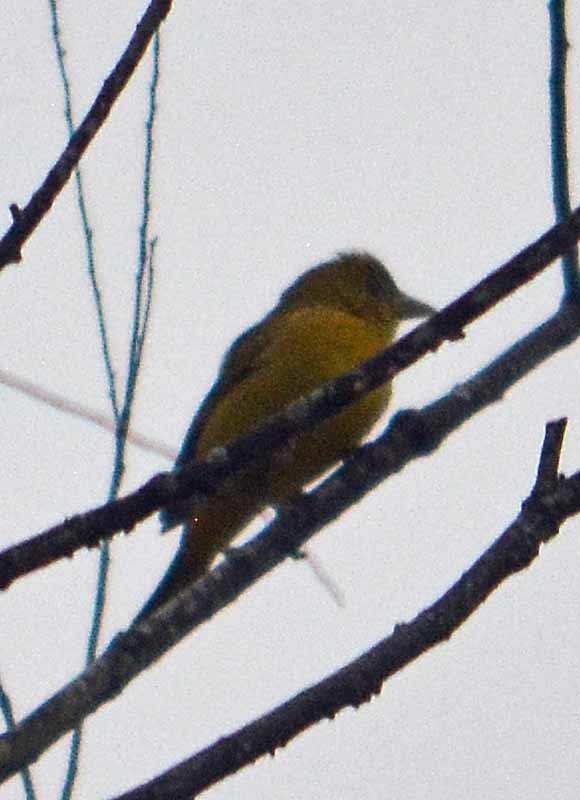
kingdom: Animalia
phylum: Chordata
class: Aves
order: Passeriformes
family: Cardinalidae
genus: Piranga
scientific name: Piranga rubra
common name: Summer tanager
